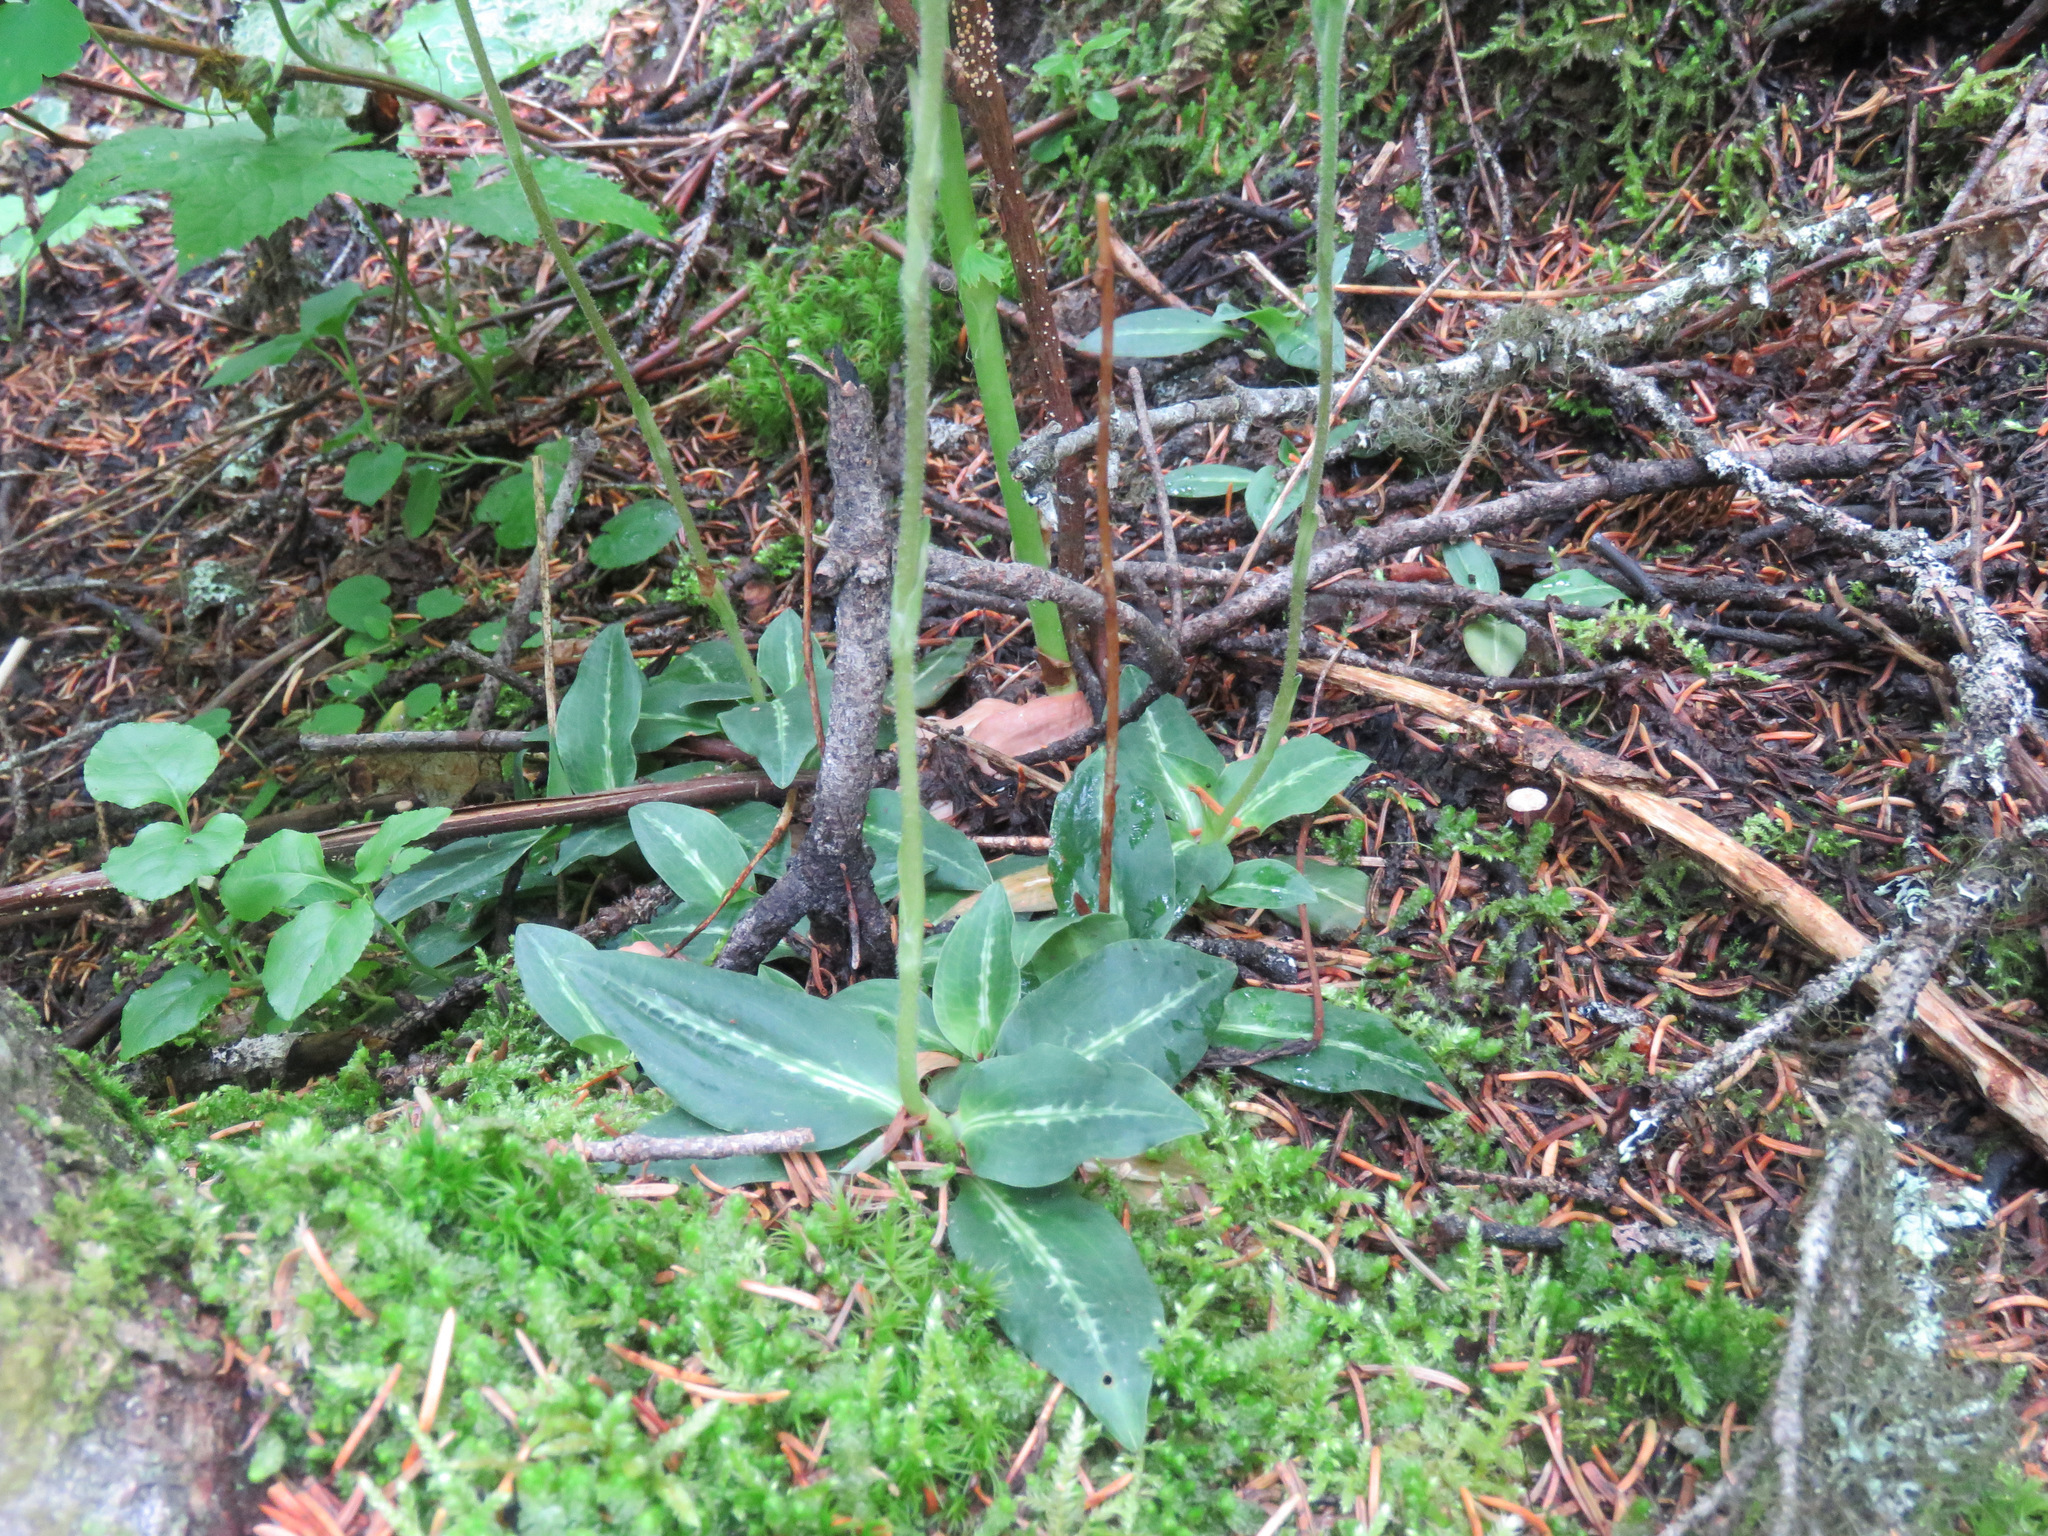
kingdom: Plantae
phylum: Tracheophyta
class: Liliopsida
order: Asparagales
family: Orchidaceae
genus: Goodyera
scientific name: Goodyera oblongifolia
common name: Giant rattlesnake-plantain
